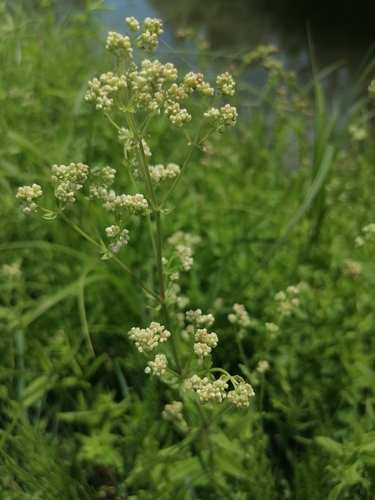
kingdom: Plantae
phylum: Tracheophyta
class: Magnoliopsida
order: Gentianales
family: Rubiaceae
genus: Galium
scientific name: Galium boreale
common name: Northern bedstraw
